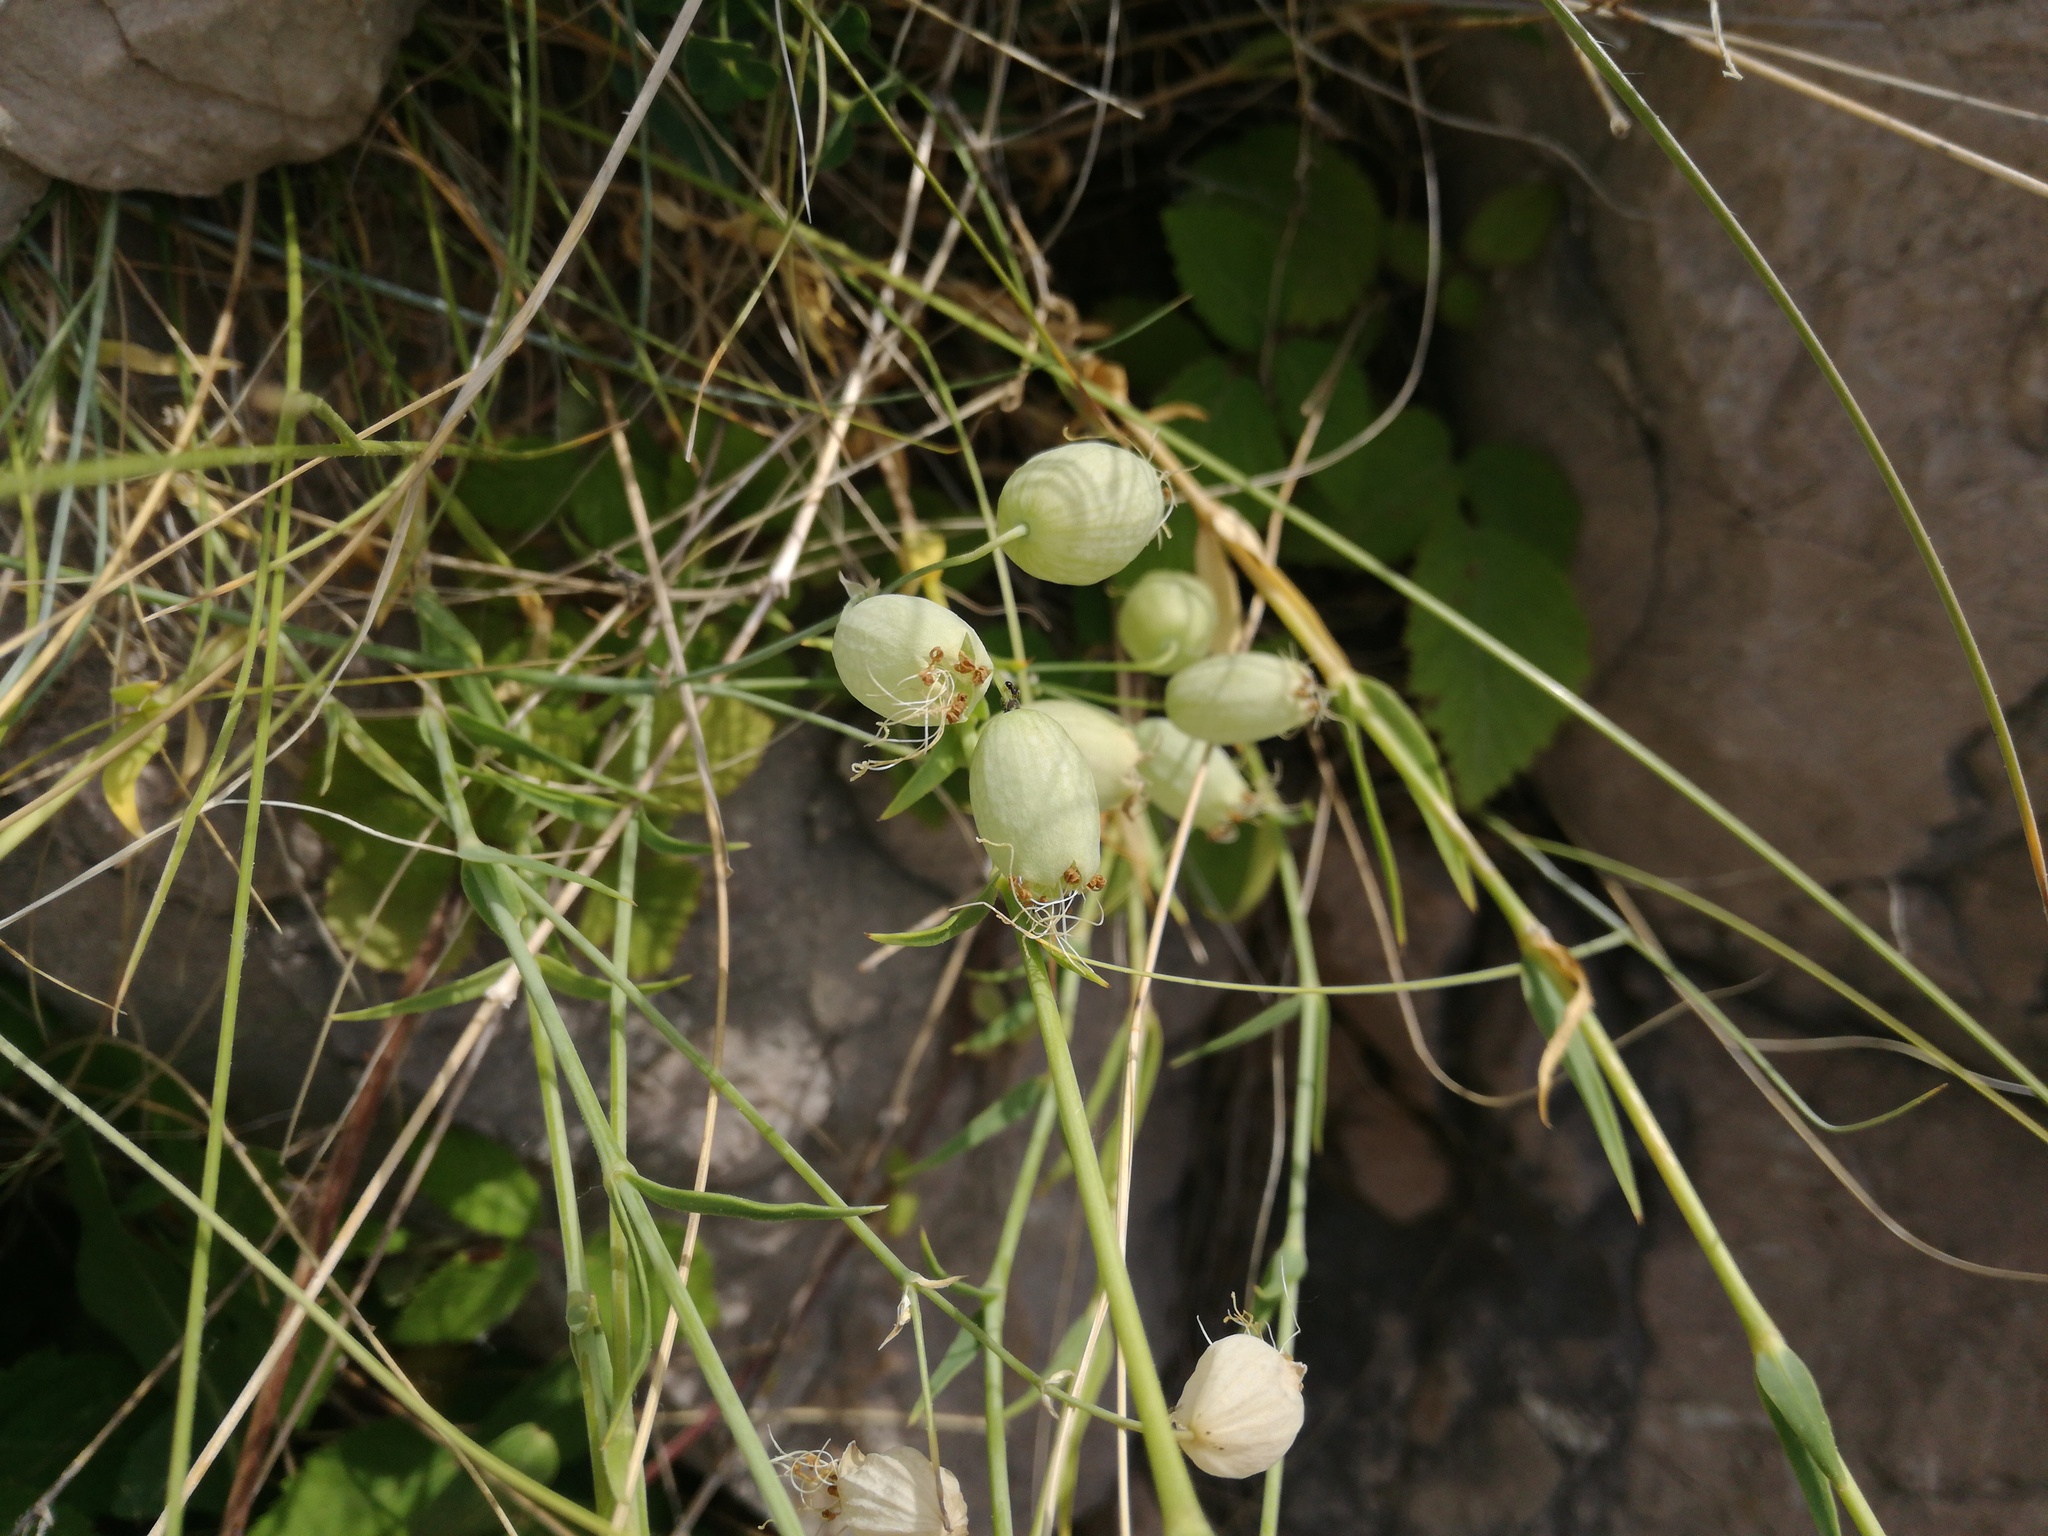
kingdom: Plantae
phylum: Tracheophyta
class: Magnoliopsida
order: Caryophyllales
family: Caryophyllaceae
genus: Silene
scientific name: Silene vulgaris
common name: Bladder campion
